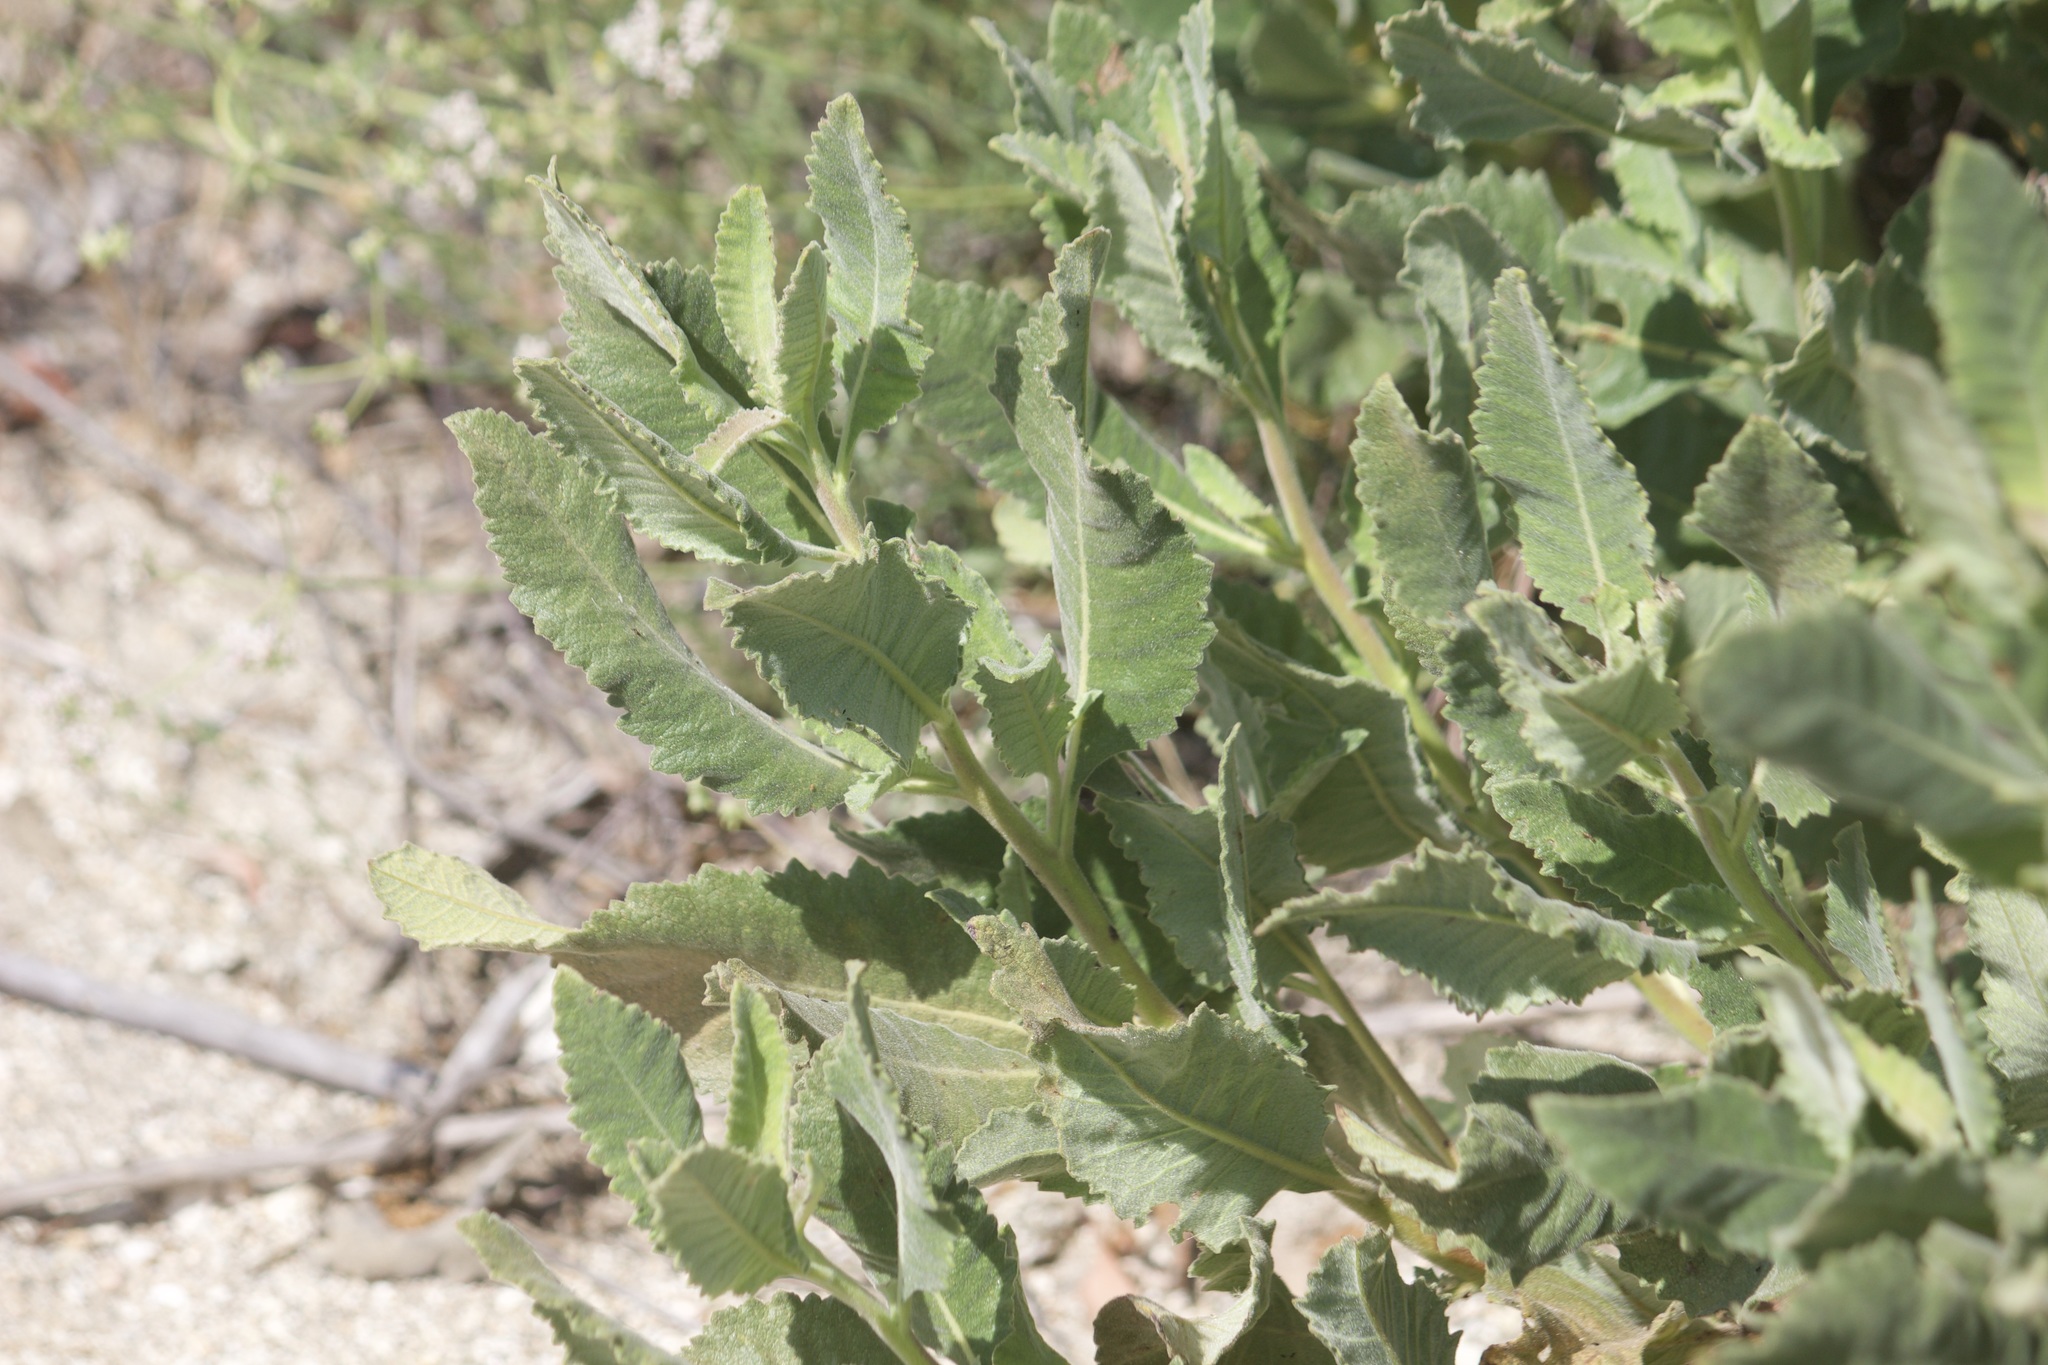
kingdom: Plantae
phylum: Tracheophyta
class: Magnoliopsida
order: Boraginales
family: Namaceae
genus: Eriodictyon
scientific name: Eriodictyon crassifolium
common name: Thick-leaf yerba-santa
